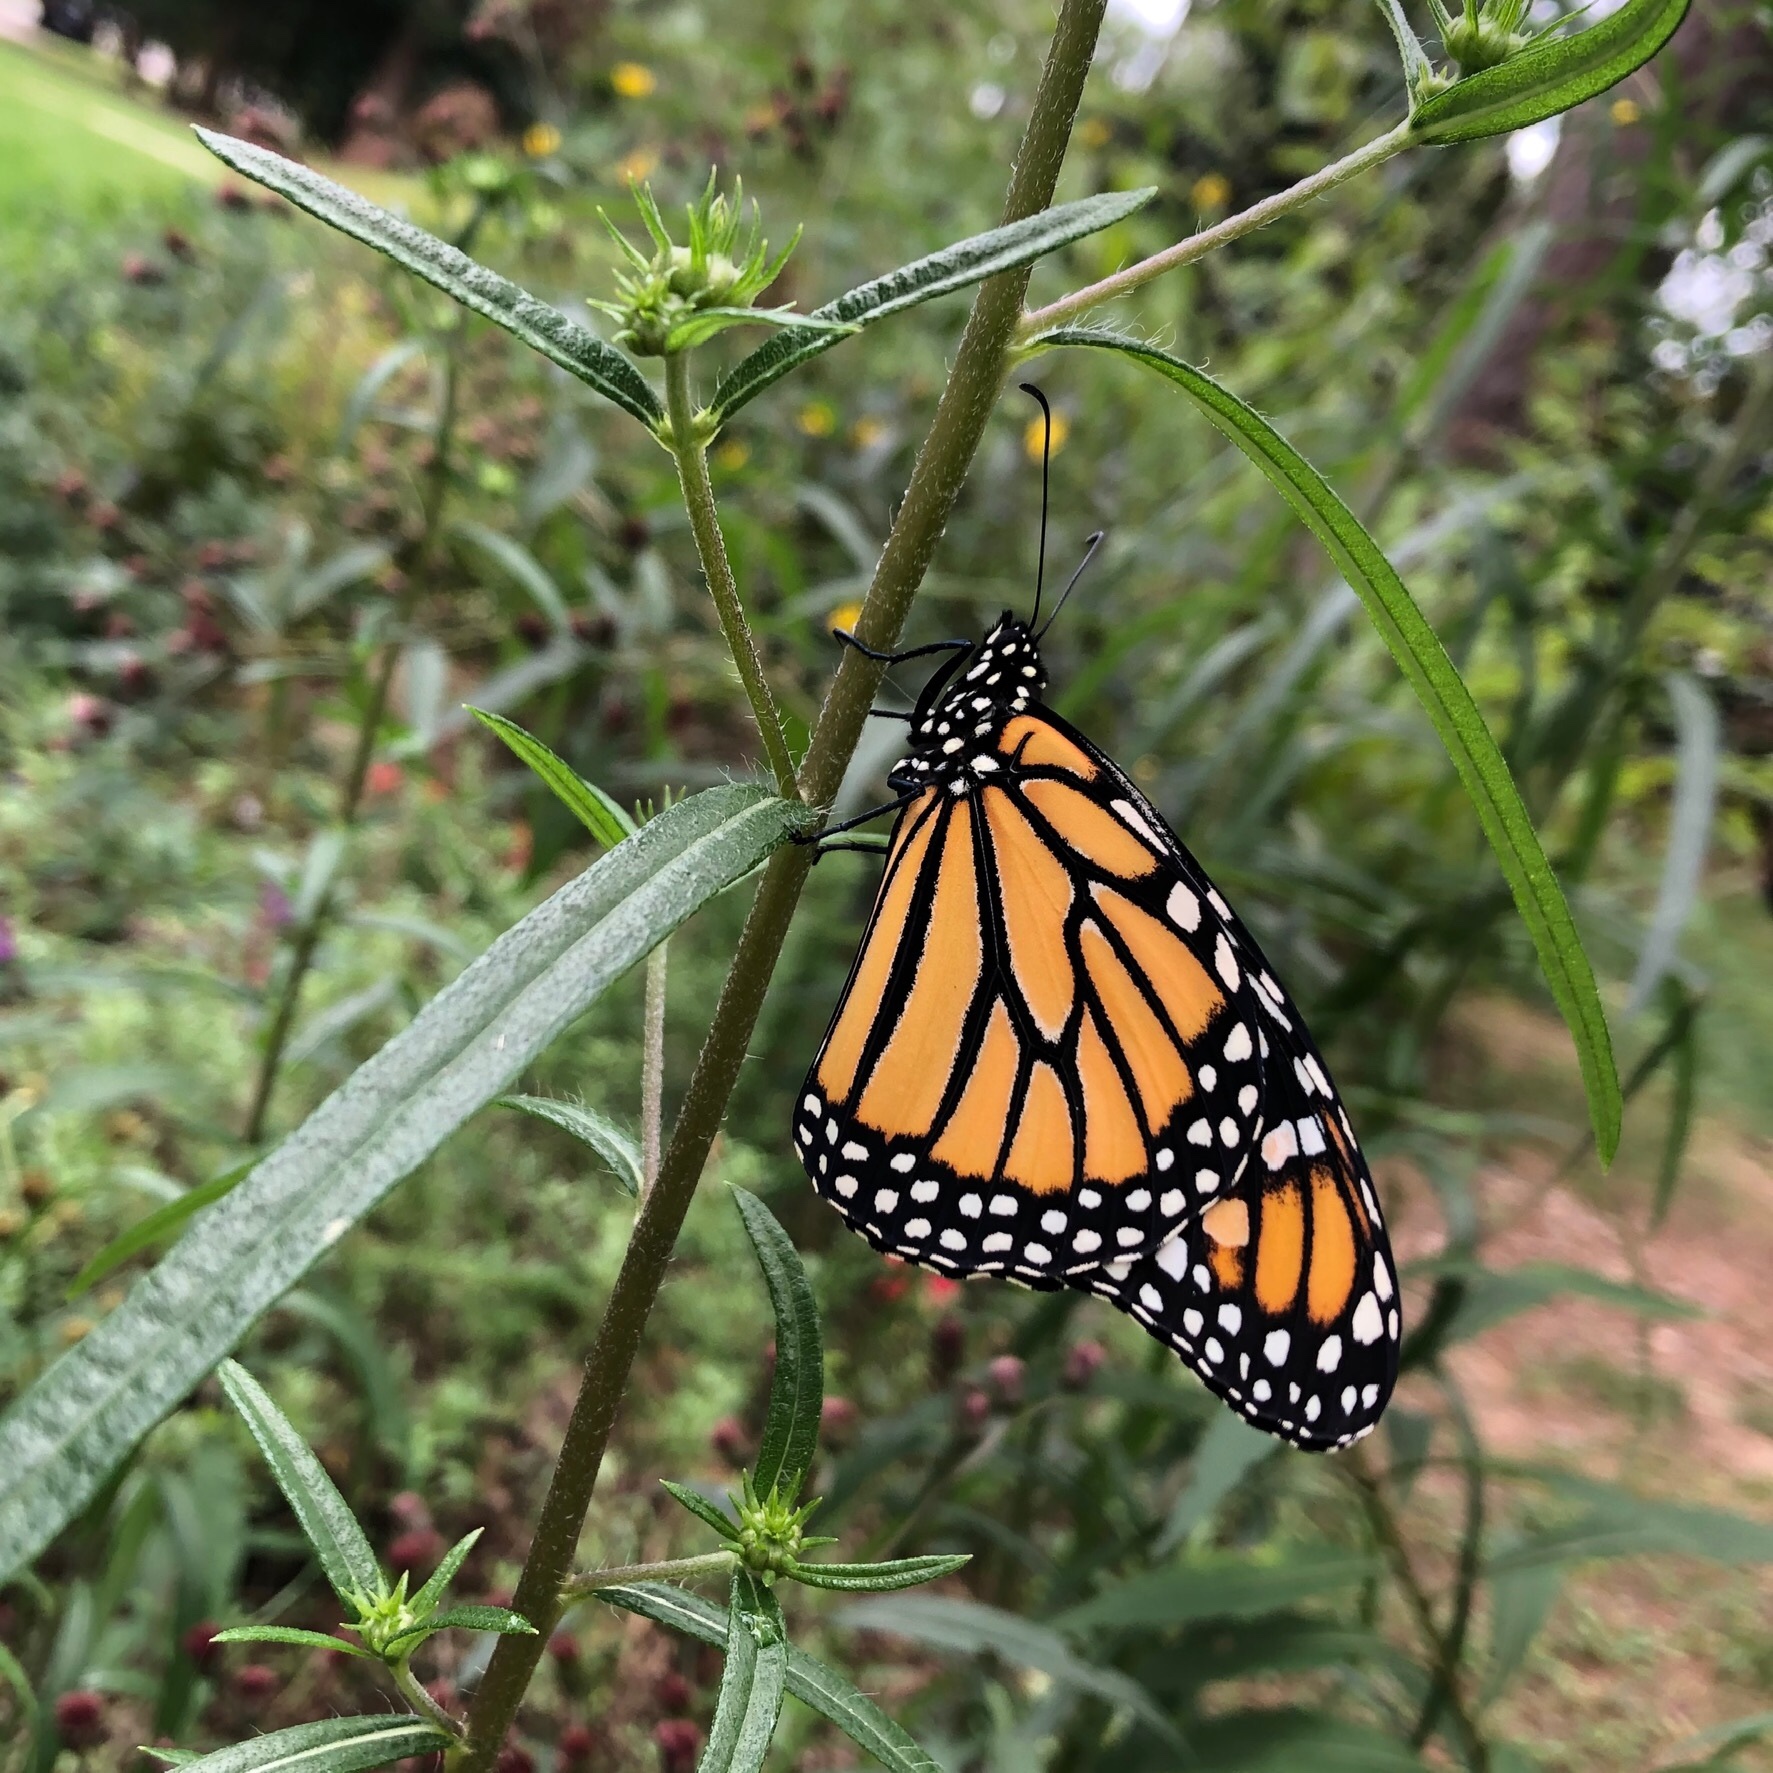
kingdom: Animalia
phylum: Arthropoda
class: Insecta
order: Lepidoptera
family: Nymphalidae
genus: Danaus
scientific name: Danaus plexippus
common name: Monarch
